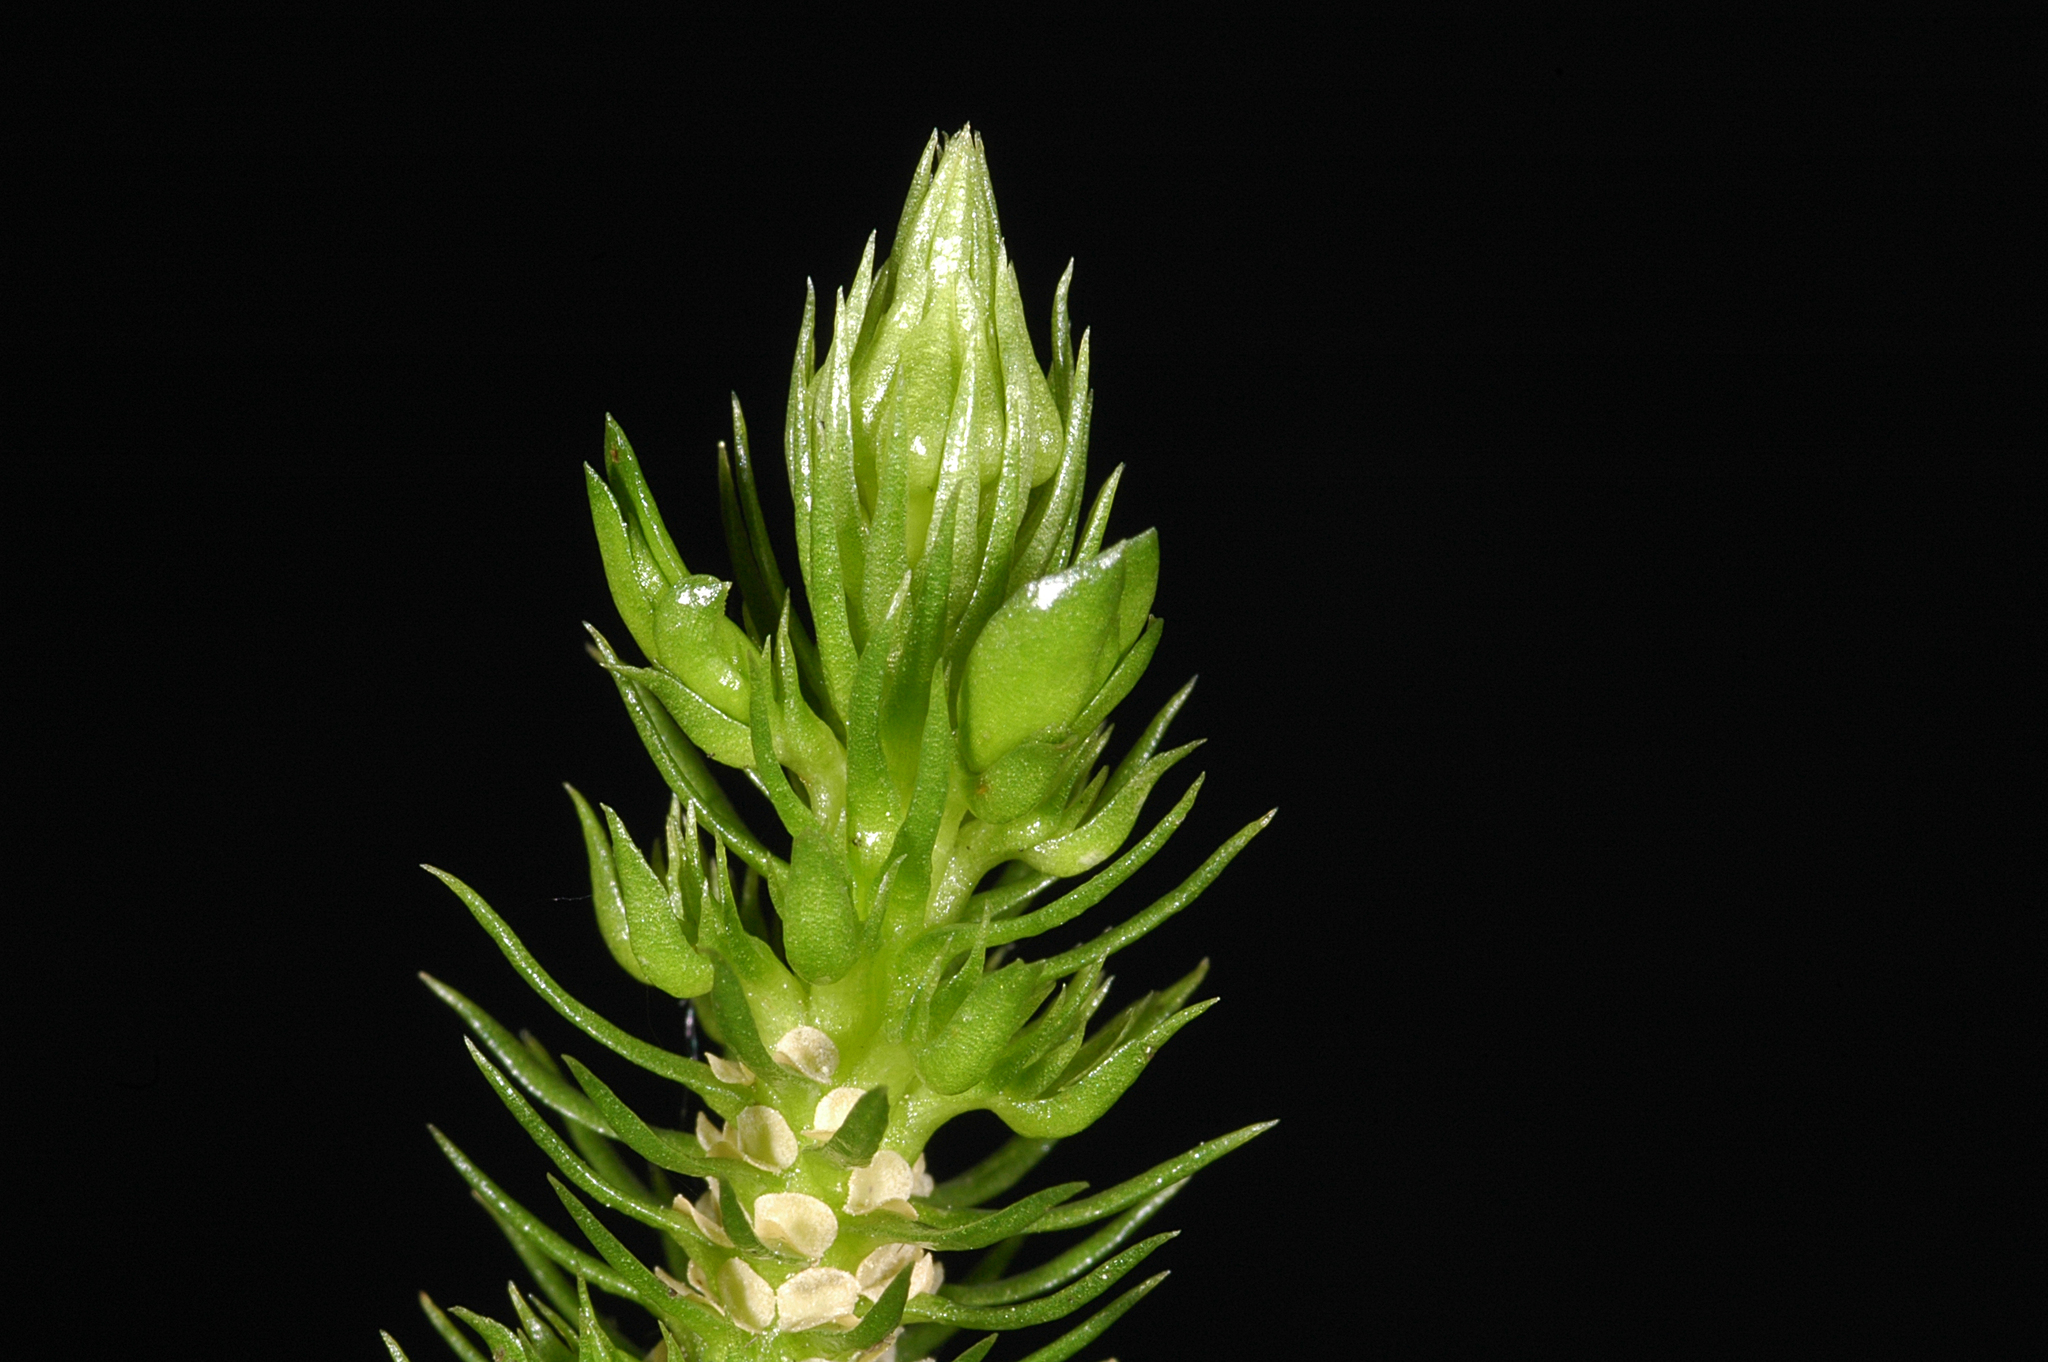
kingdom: Plantae
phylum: Tracheophyta
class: Lycopodiopsida
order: Lycopodiales
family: Lycopodiaceae
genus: Huperzia
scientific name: Huperzia miyoshiana
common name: Chinese clubmoss
